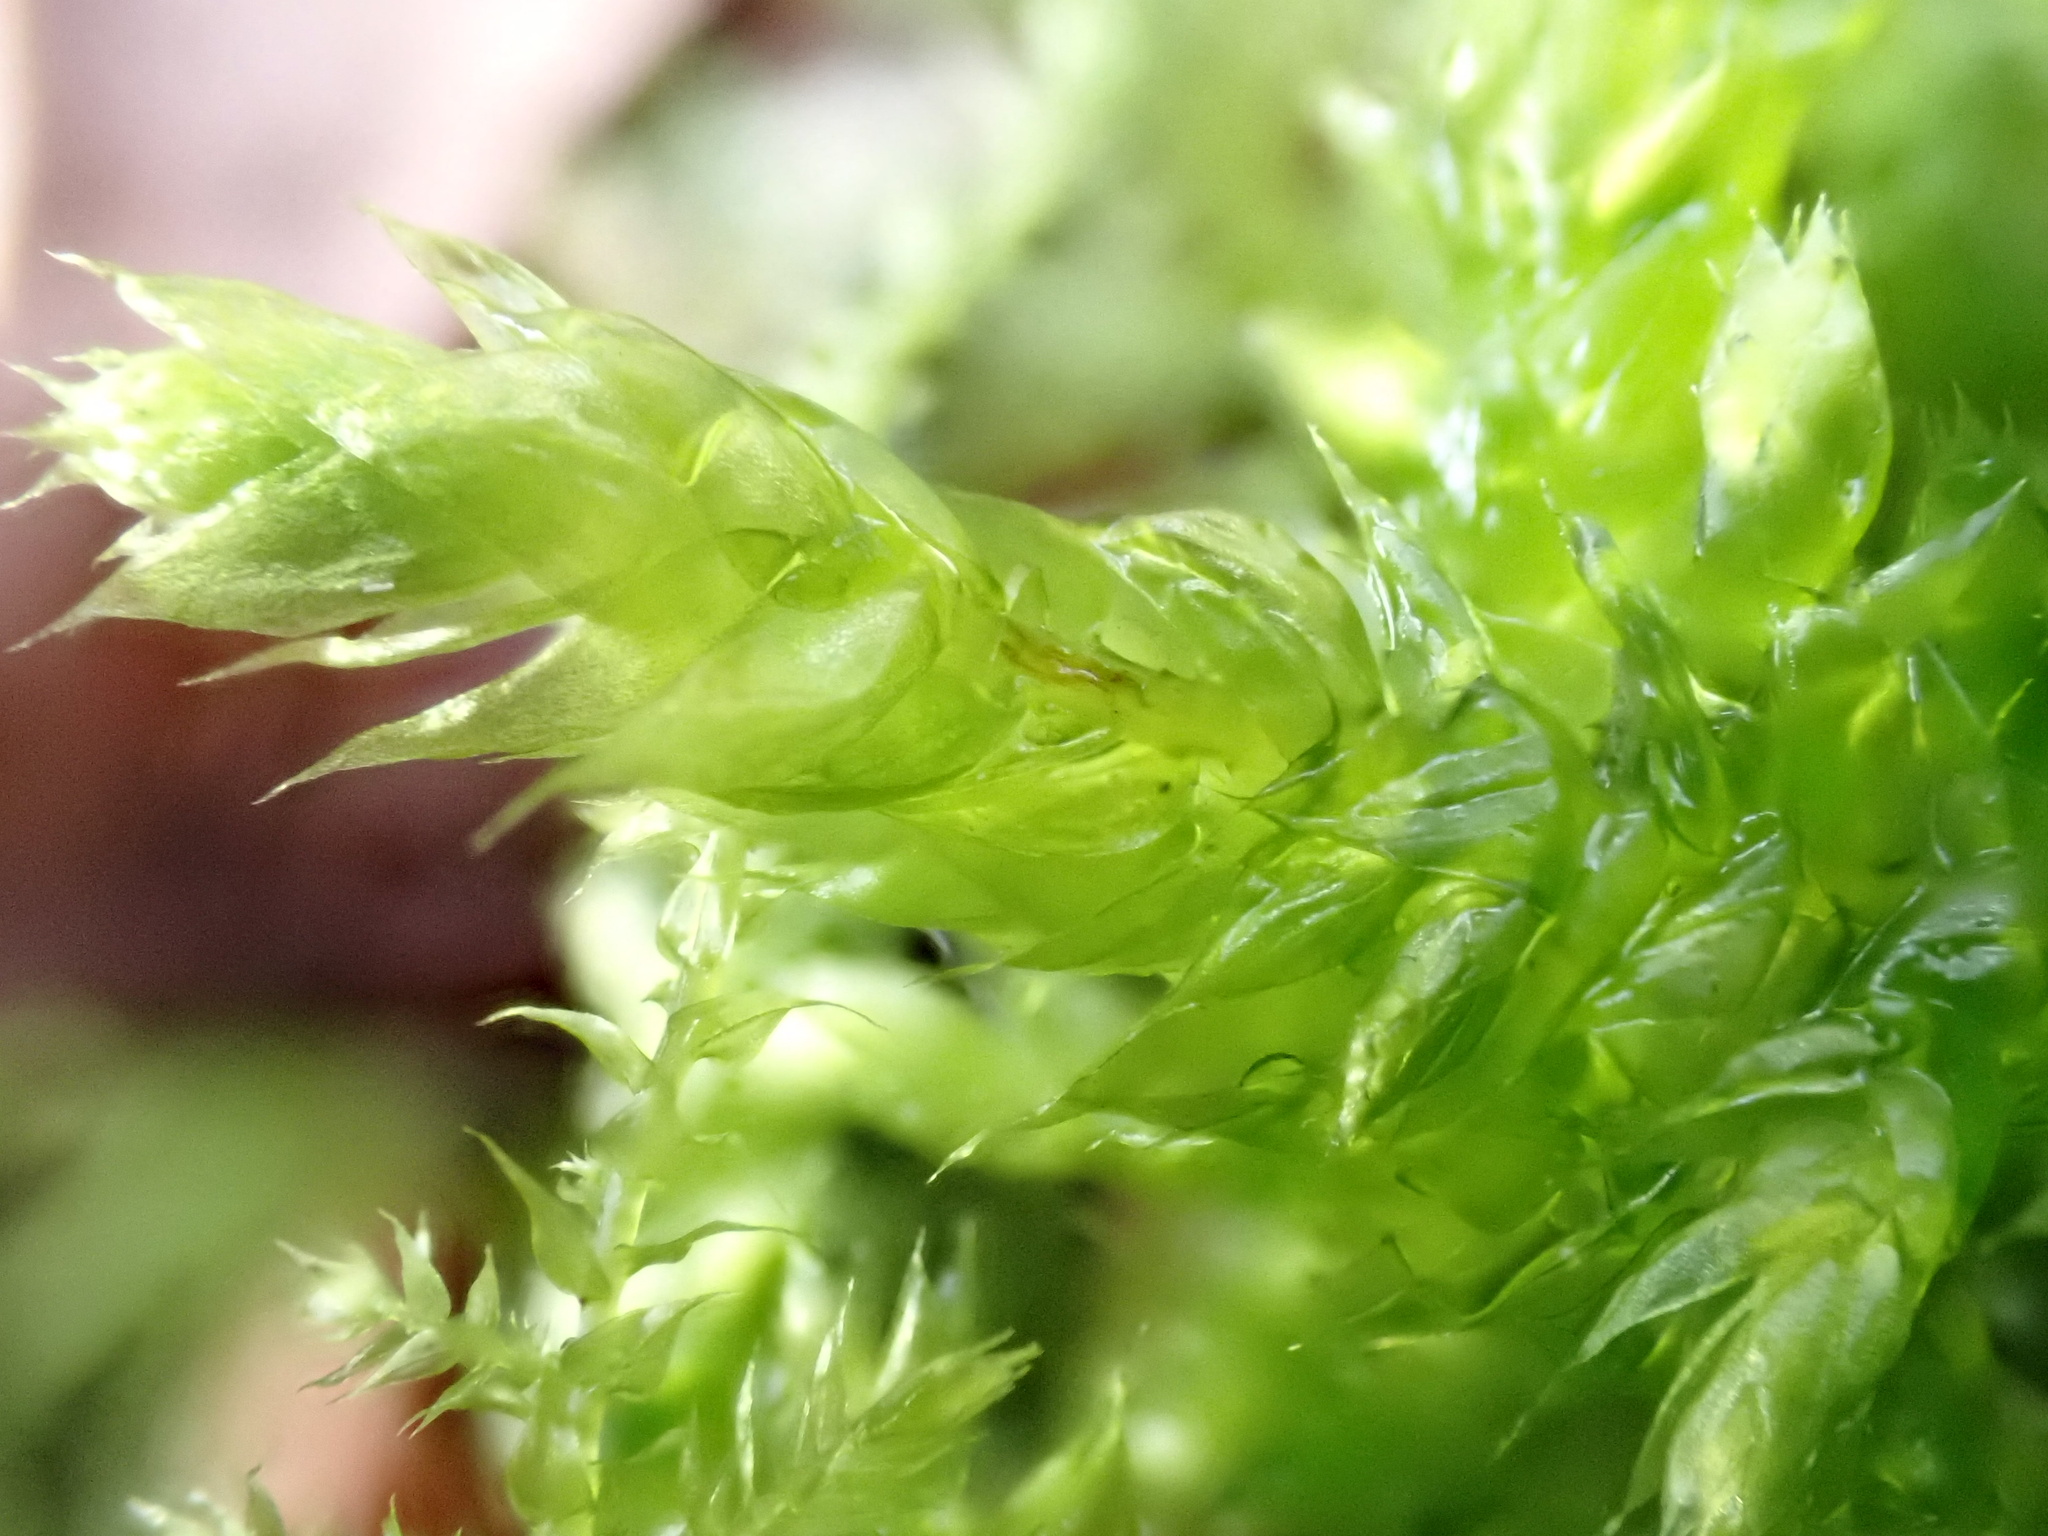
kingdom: Plantae
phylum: Bryophyta
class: Bryopsida
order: Hypnales
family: Brachytheciaceae
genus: Brachythecium
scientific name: Brachythecium rutabulum
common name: Rough-stalked feather-moss
